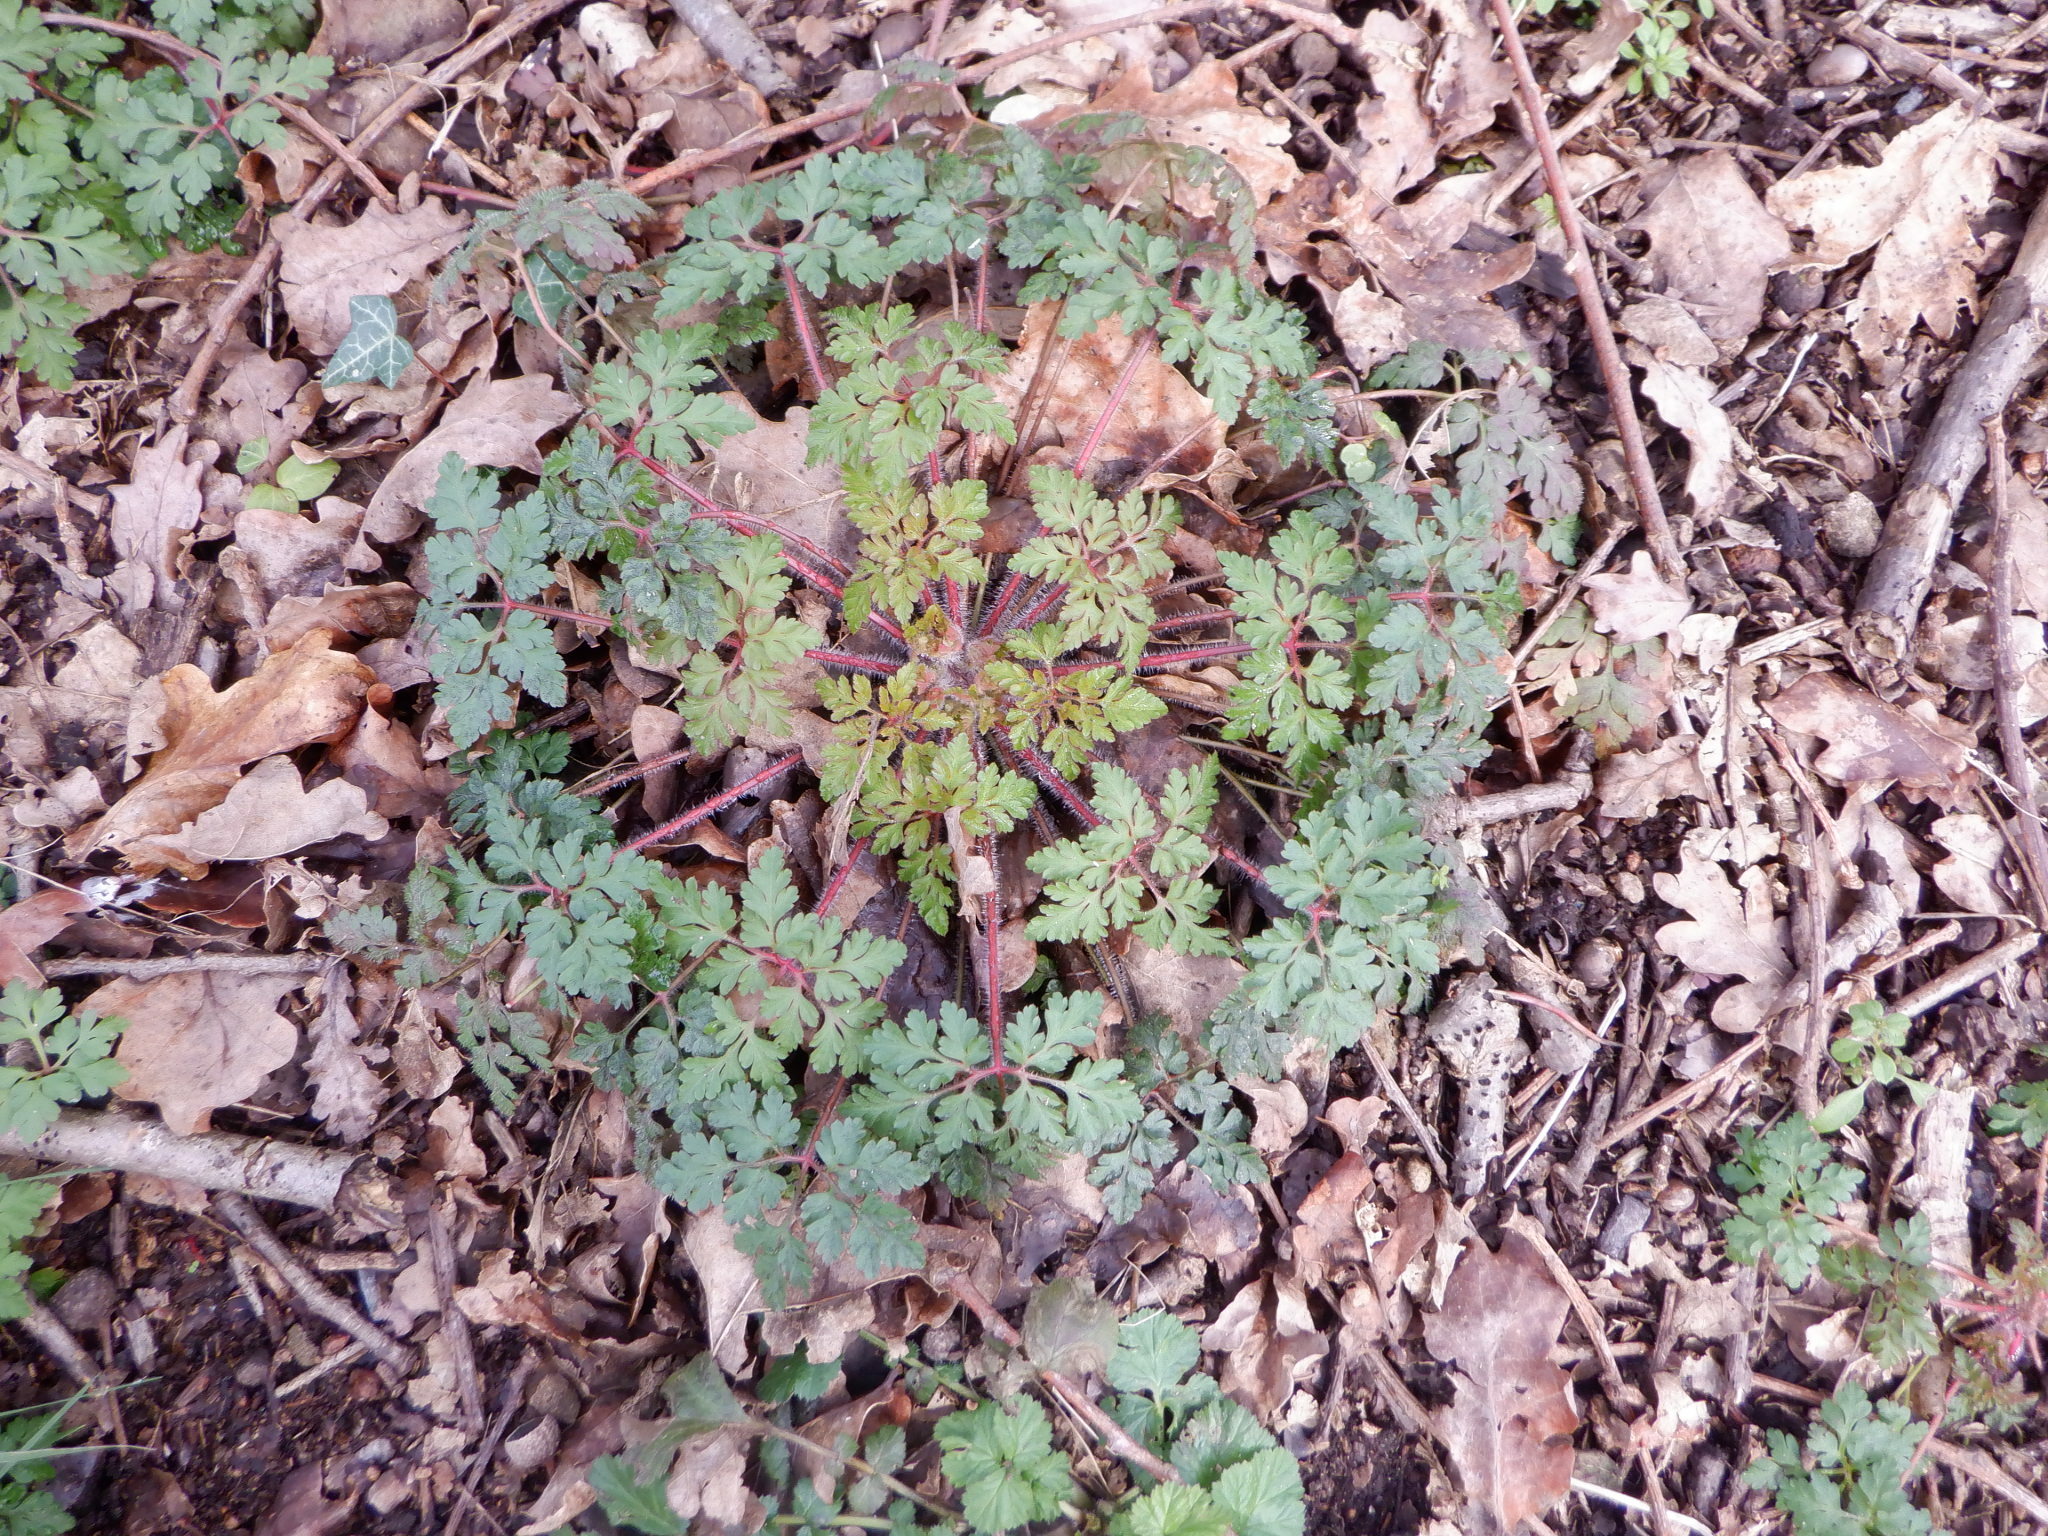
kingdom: Plantae
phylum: Tracheophyta
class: Magnoliopsida
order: Geraniales
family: Geraniaceae
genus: Geranium
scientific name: Geranium robertianum
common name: Herb-robert
